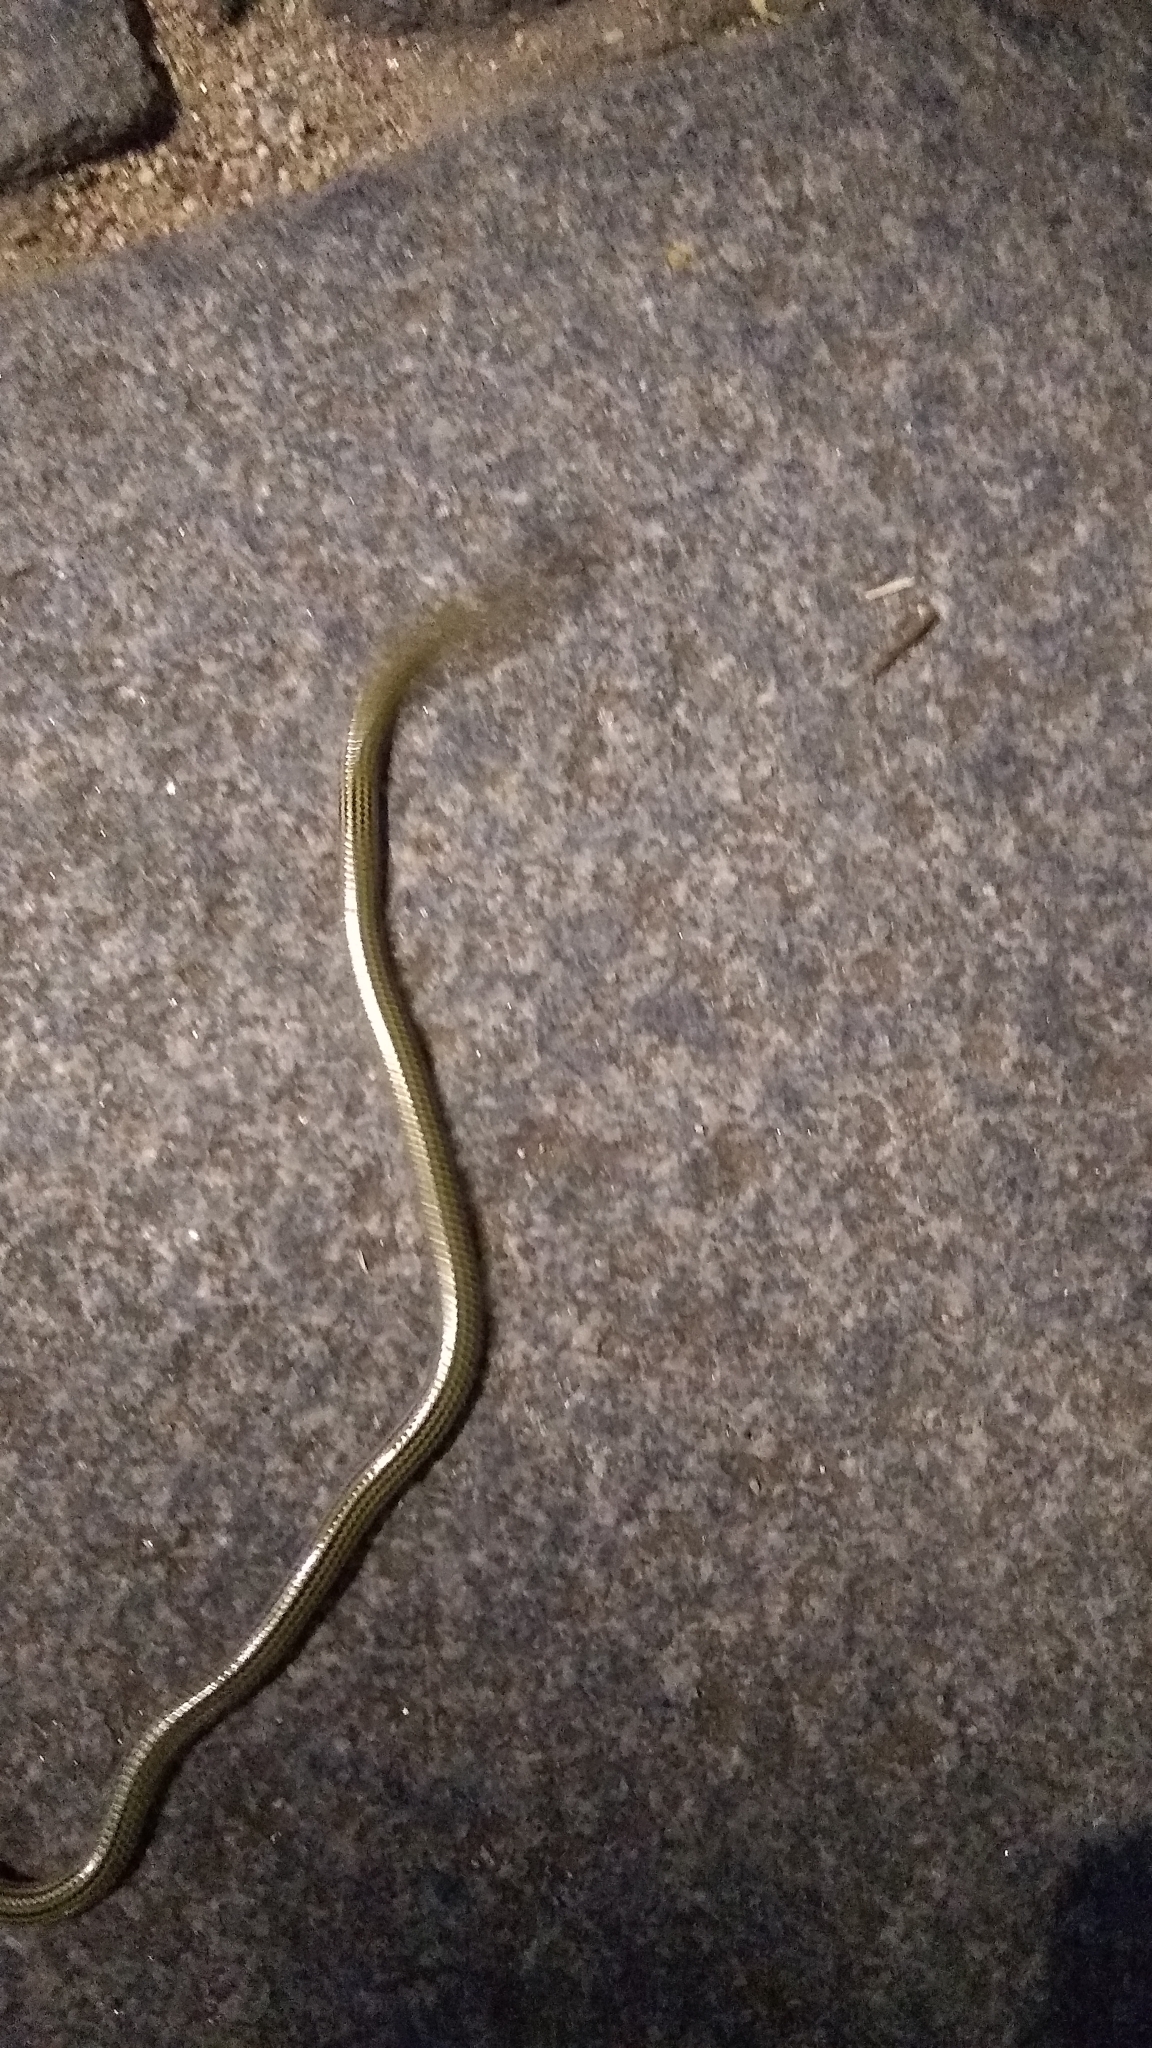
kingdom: Animalia
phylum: Chordata
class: Squamata
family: Leptotyphlopidae
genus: Epictia
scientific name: Epictia albipuncta
